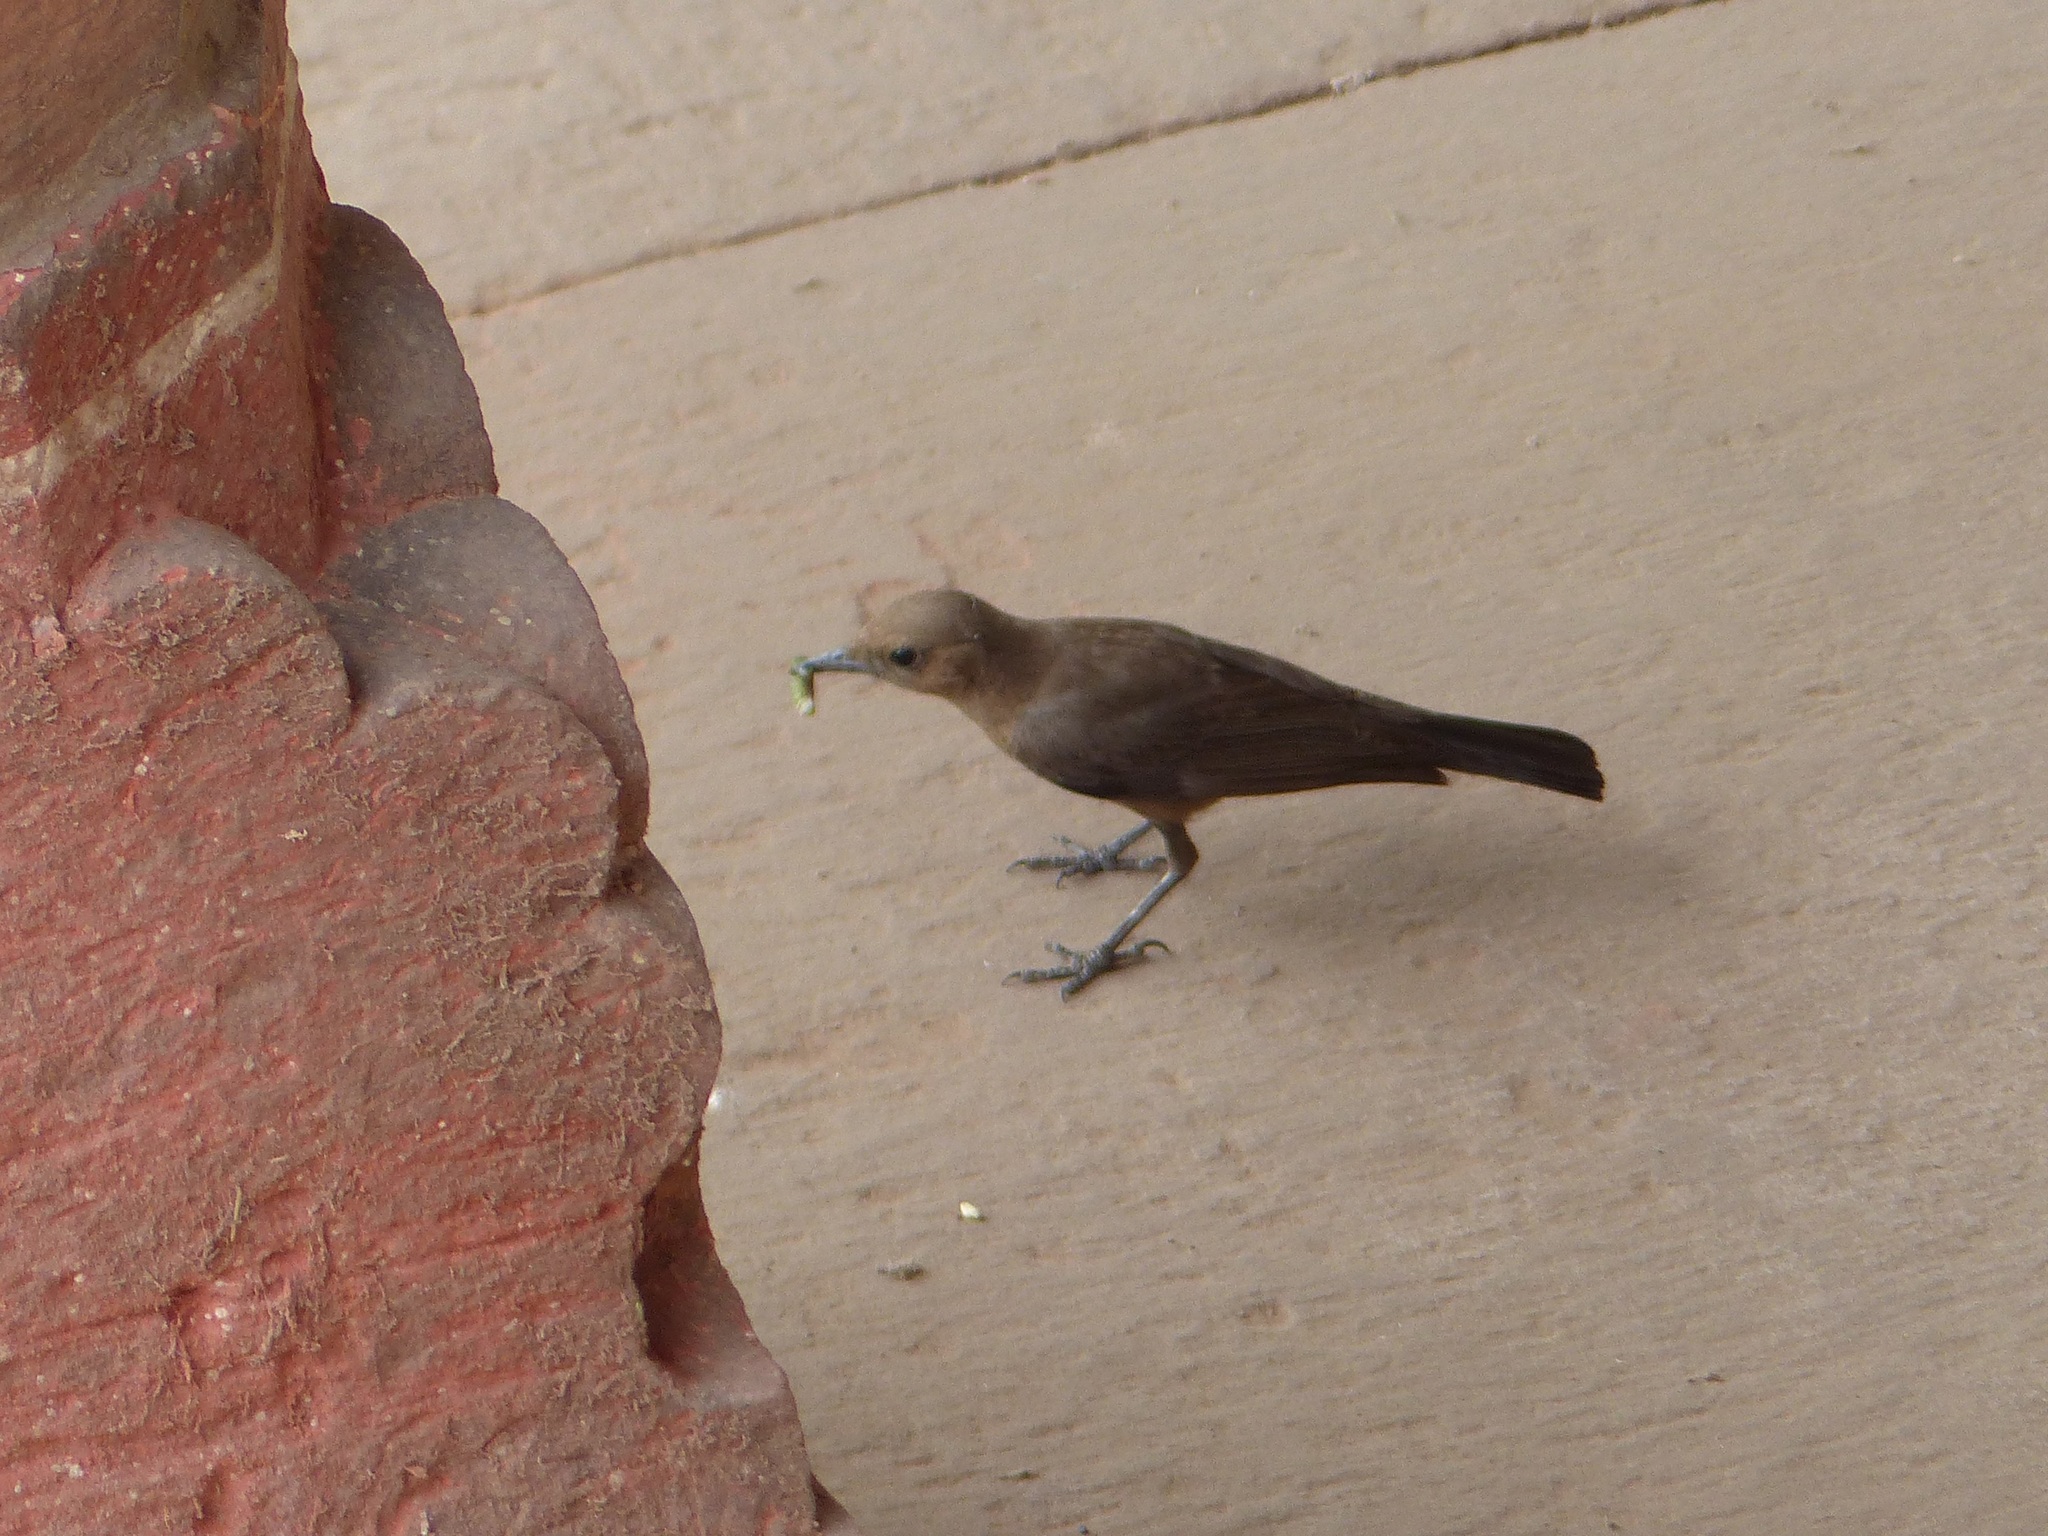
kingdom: Animalia
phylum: Chordata
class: Aves
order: Passeriformes
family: Muscicapidae
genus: Oenanthe
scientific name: Oenanthe fusca
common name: Brown rock chat
